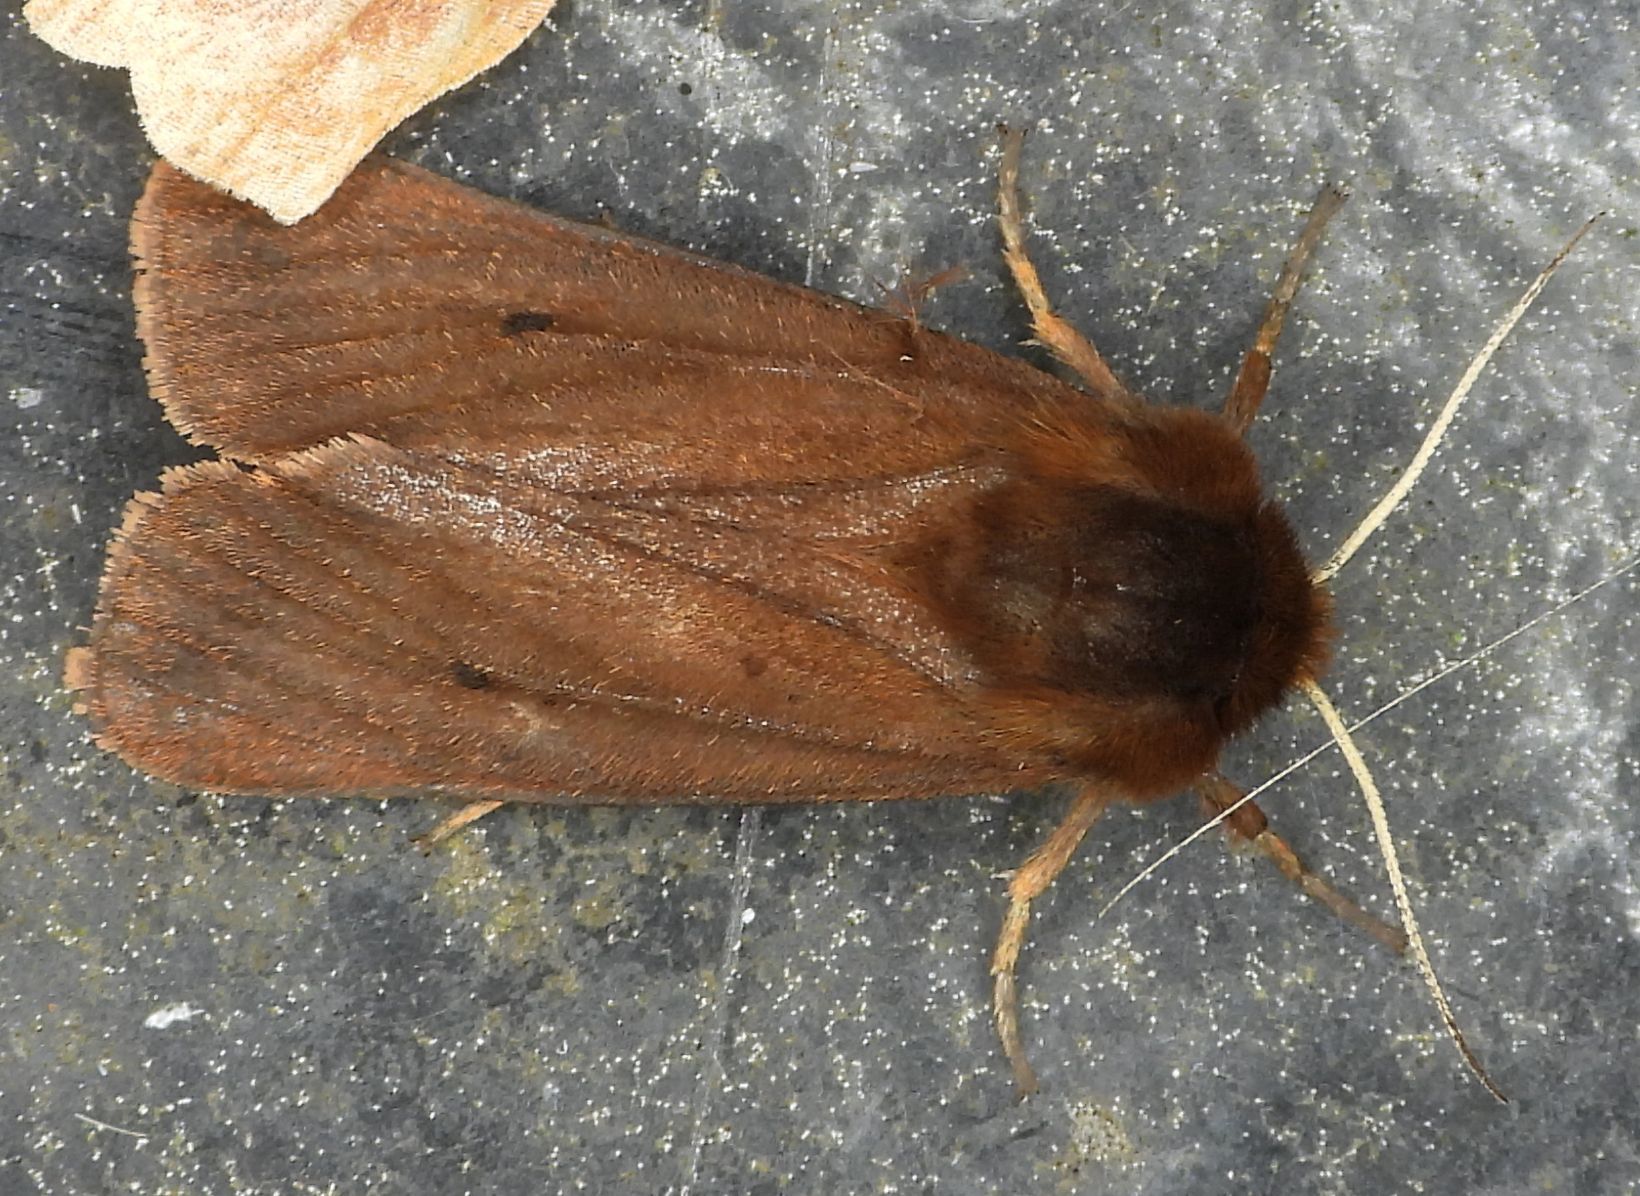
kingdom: Animalia
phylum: Arthropoda
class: Insecta
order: Lepidoptera
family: Erebidae
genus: Phragmatobia
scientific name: Phragmatobia fuliginosa
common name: Ruby tiger
